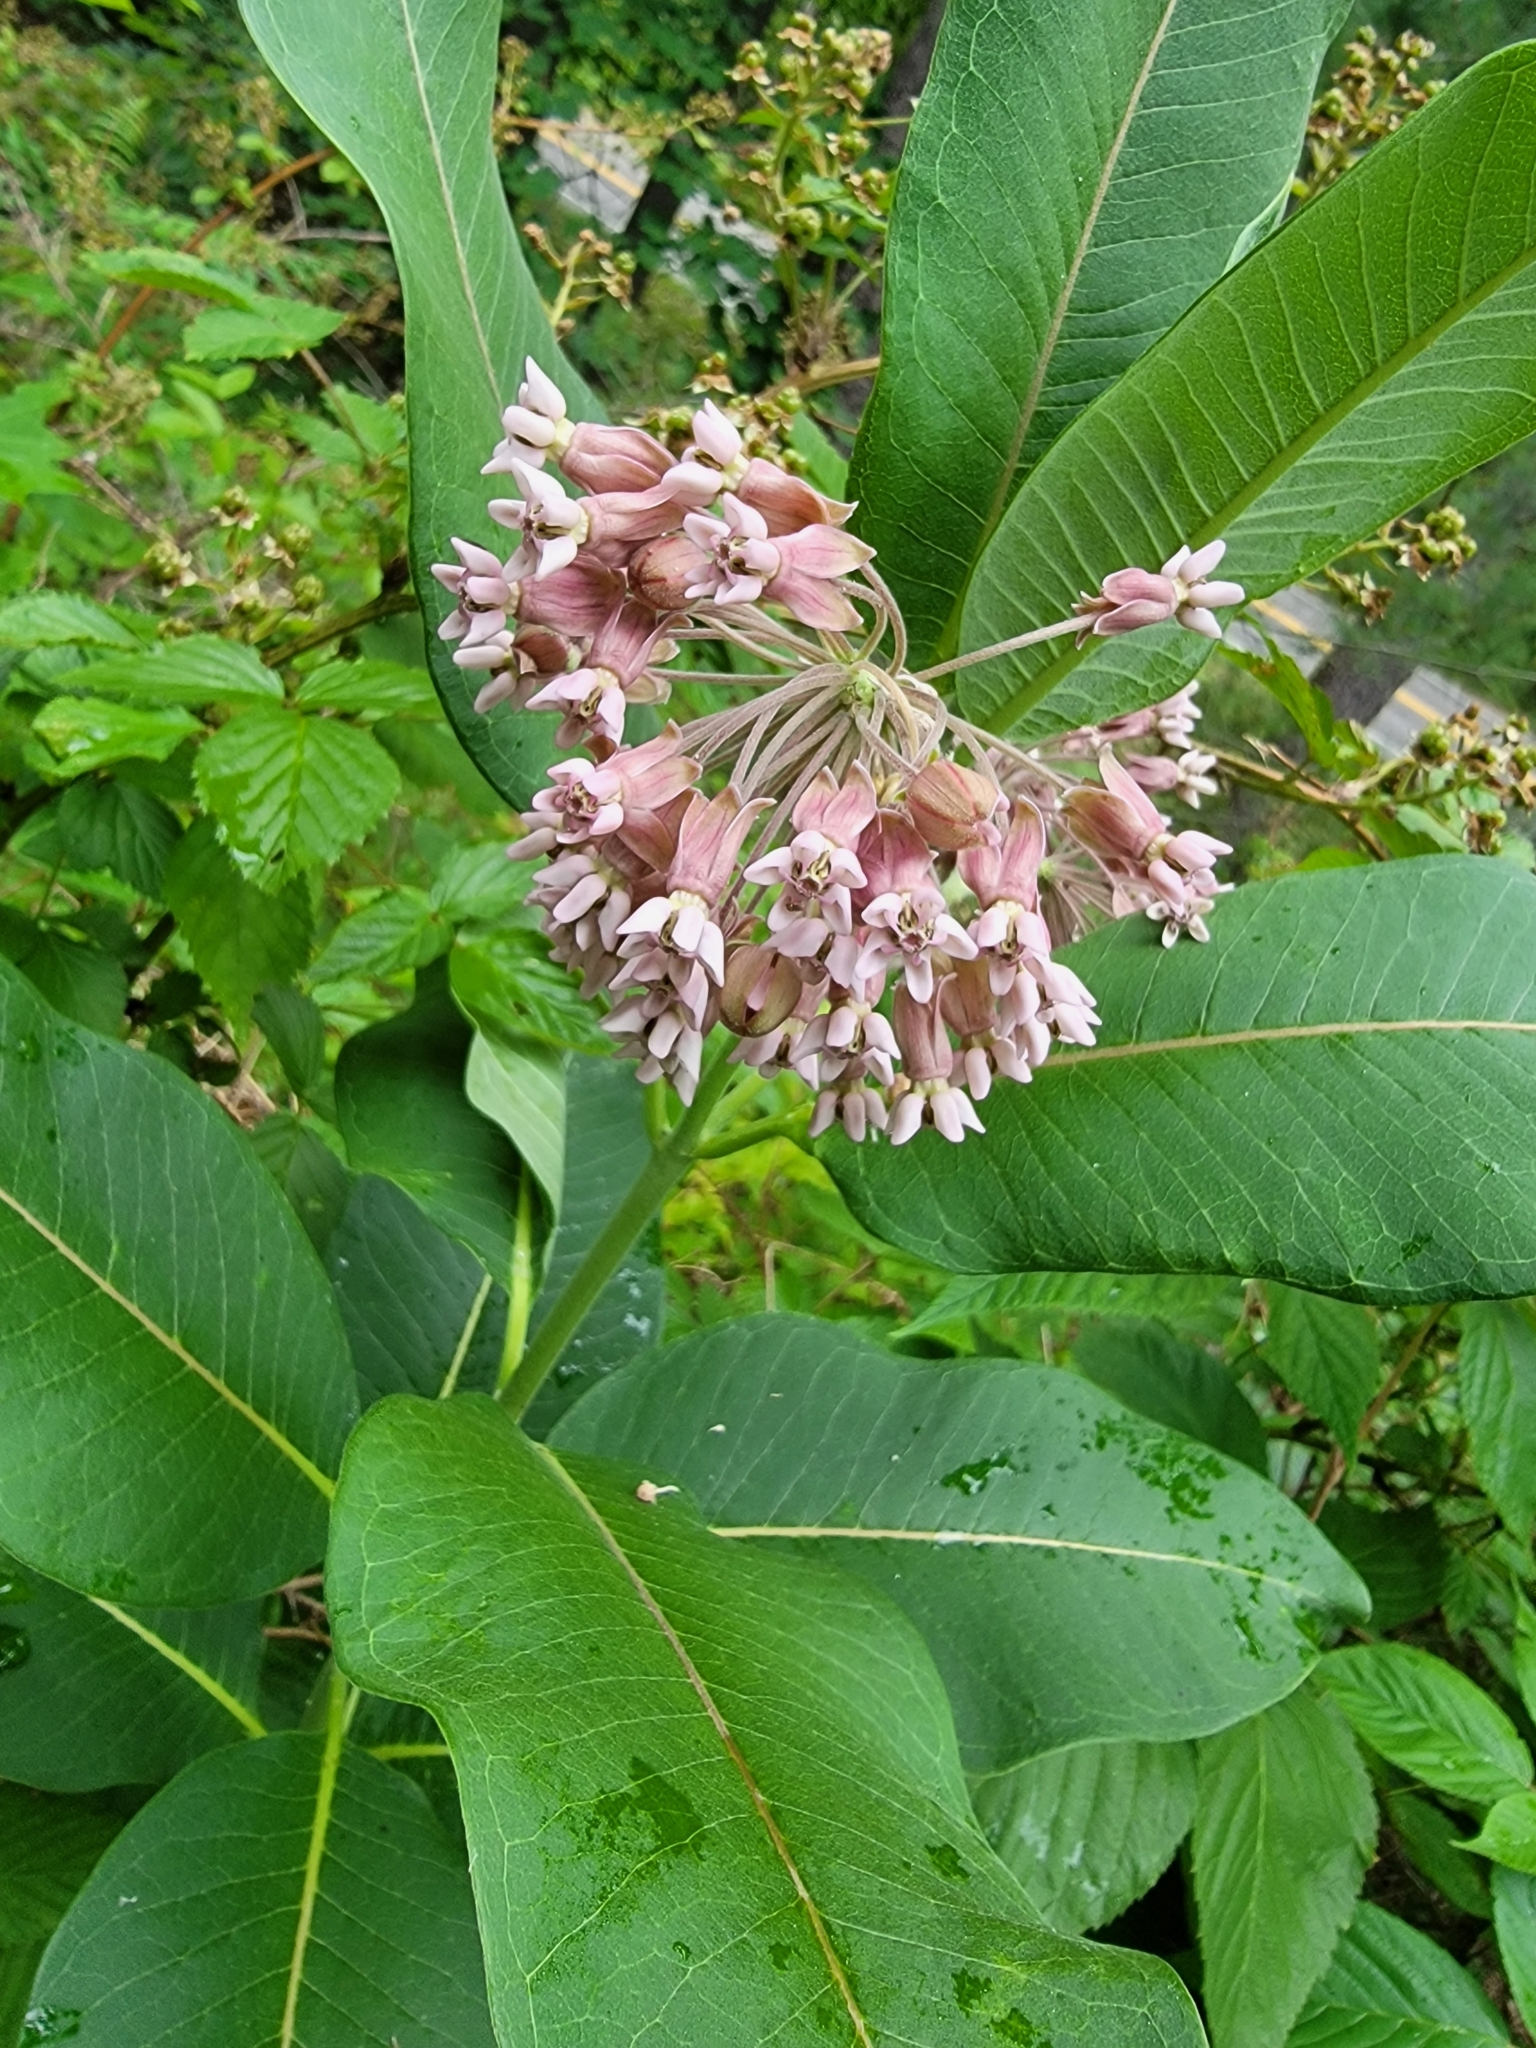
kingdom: Plantae
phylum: Tracheophyta
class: Magnoliopsida
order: Gentianales
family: Apocynaceae
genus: Asclepias
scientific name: Asclepias syriaca
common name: Common milkweed
